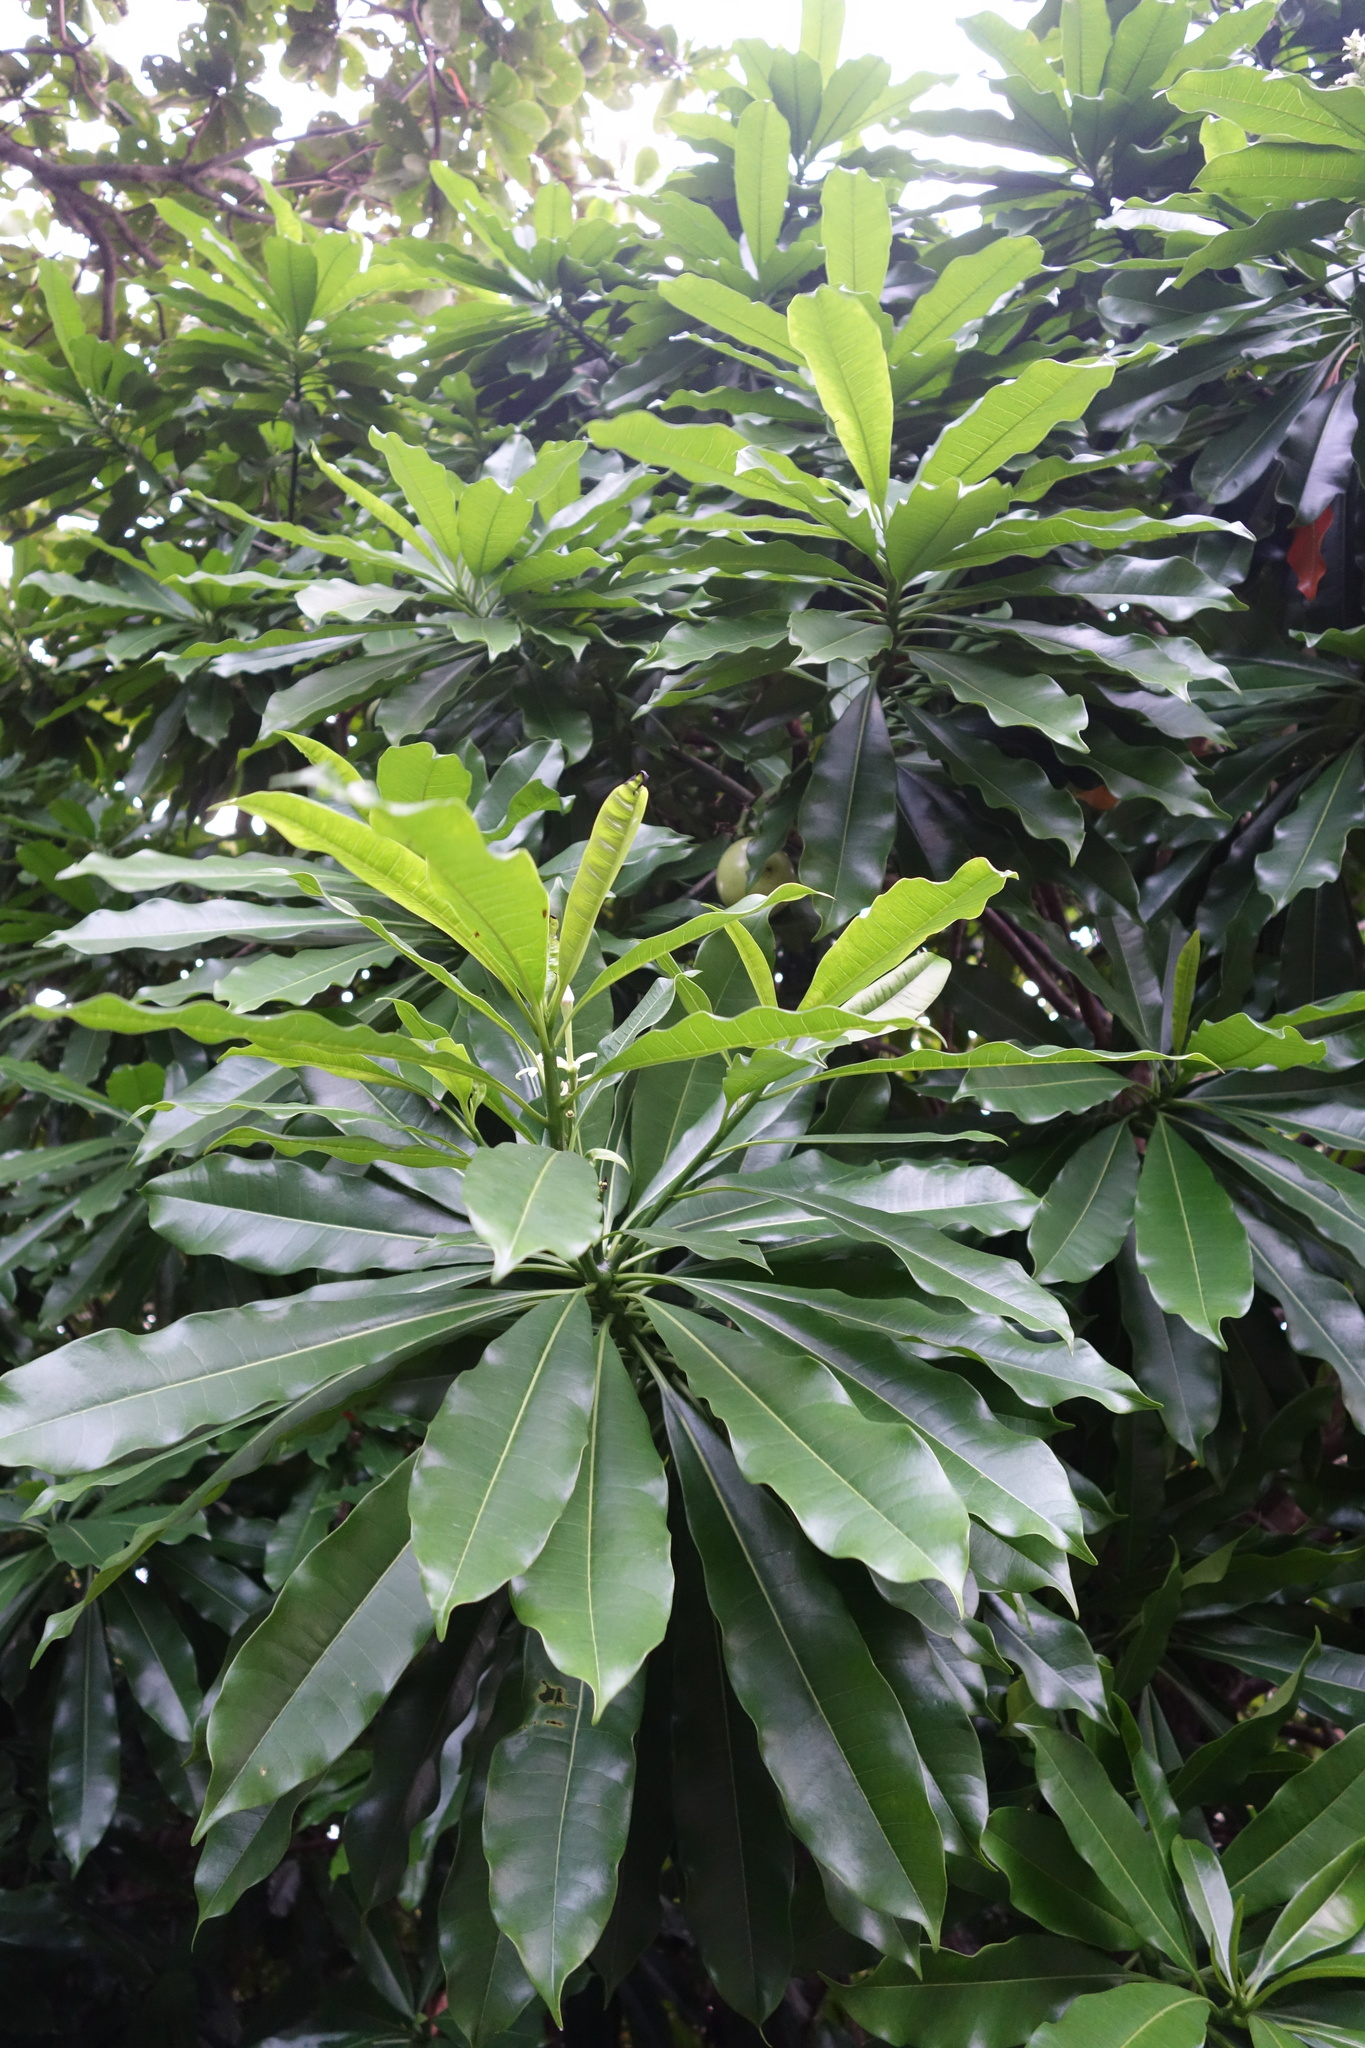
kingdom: Plantae
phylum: Tracheophyta
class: Magnoliopsida
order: Gentianales
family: Apocynaceae
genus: Cerbera
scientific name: Cerbera manghas
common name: Reva
